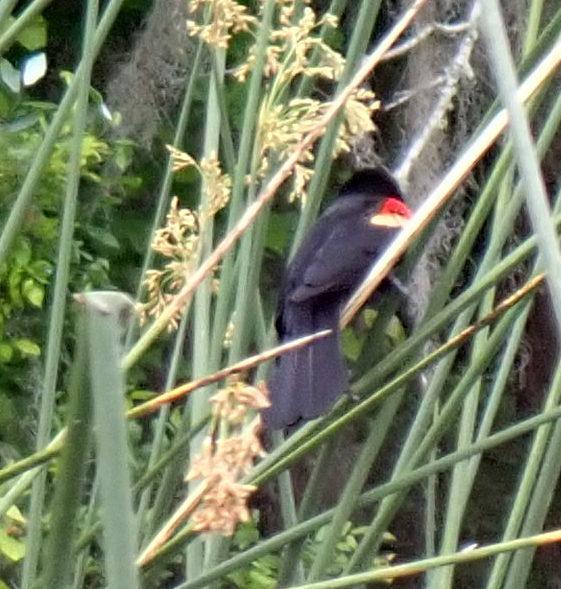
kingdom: Animalia
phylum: Chordata
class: Aves
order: Passeriformes
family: Icteridae
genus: Agelaius
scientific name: Agelaius phoeniceus
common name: Red-winged blackbird
